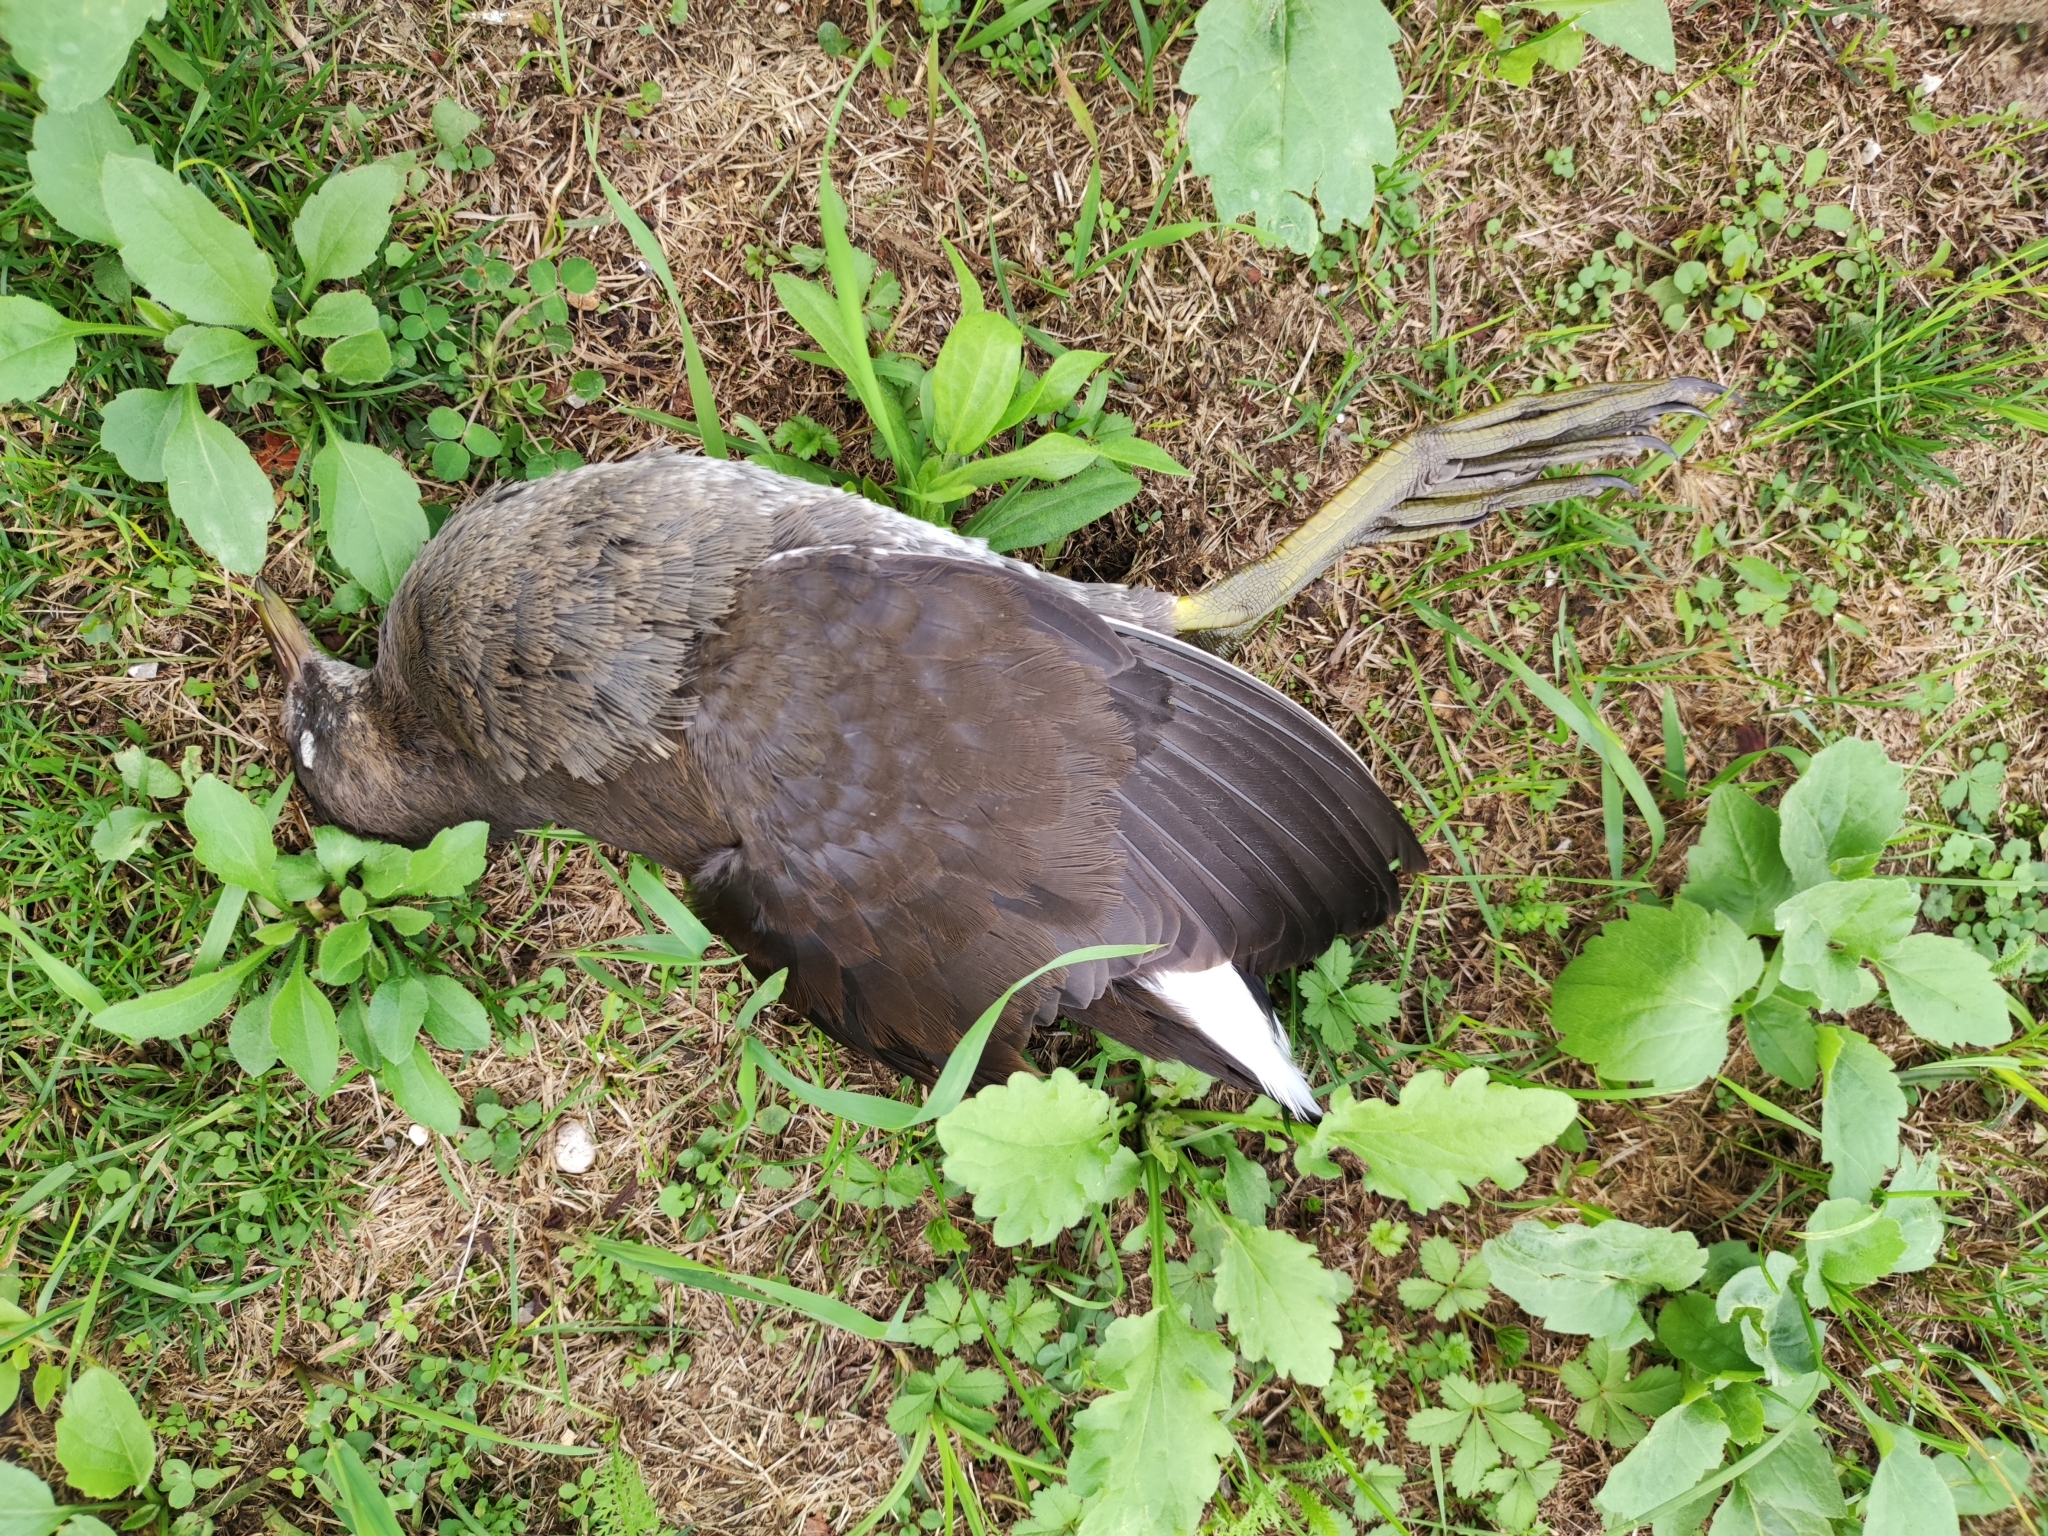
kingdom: Animalia
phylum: Chordata
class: Aves
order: Gruiformes
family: Rallidae
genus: Gallinula
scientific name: Gallinula chloropus
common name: Common moorhen
